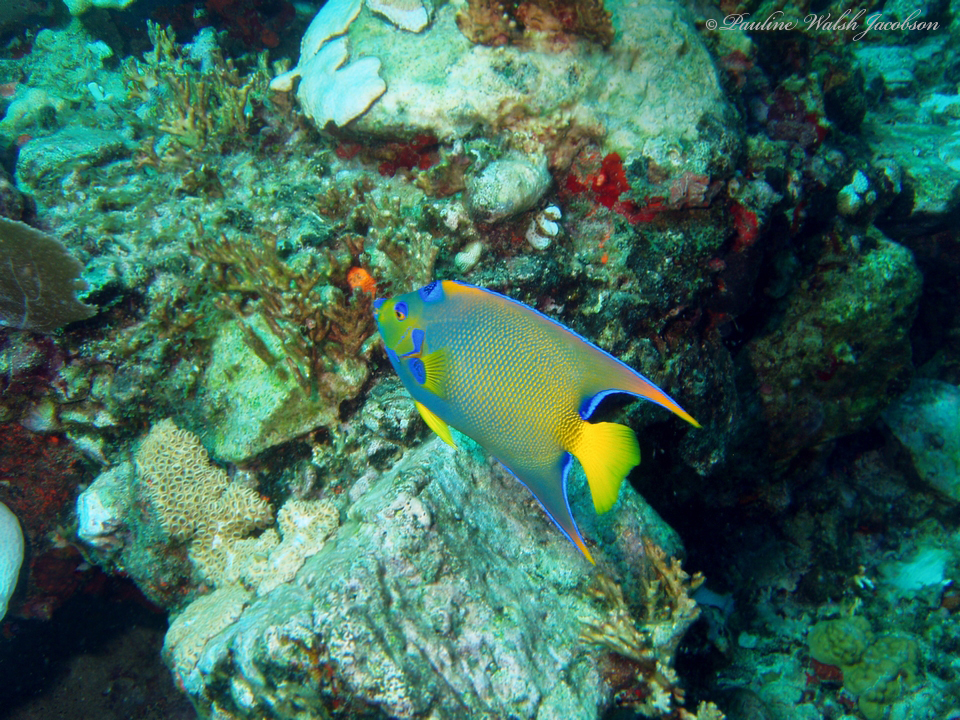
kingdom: Animalia
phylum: Chordata
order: Perciformes
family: Pomacanthidae
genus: Holacanthus
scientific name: Holacanthus ciliaris
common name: Queen angelfish
